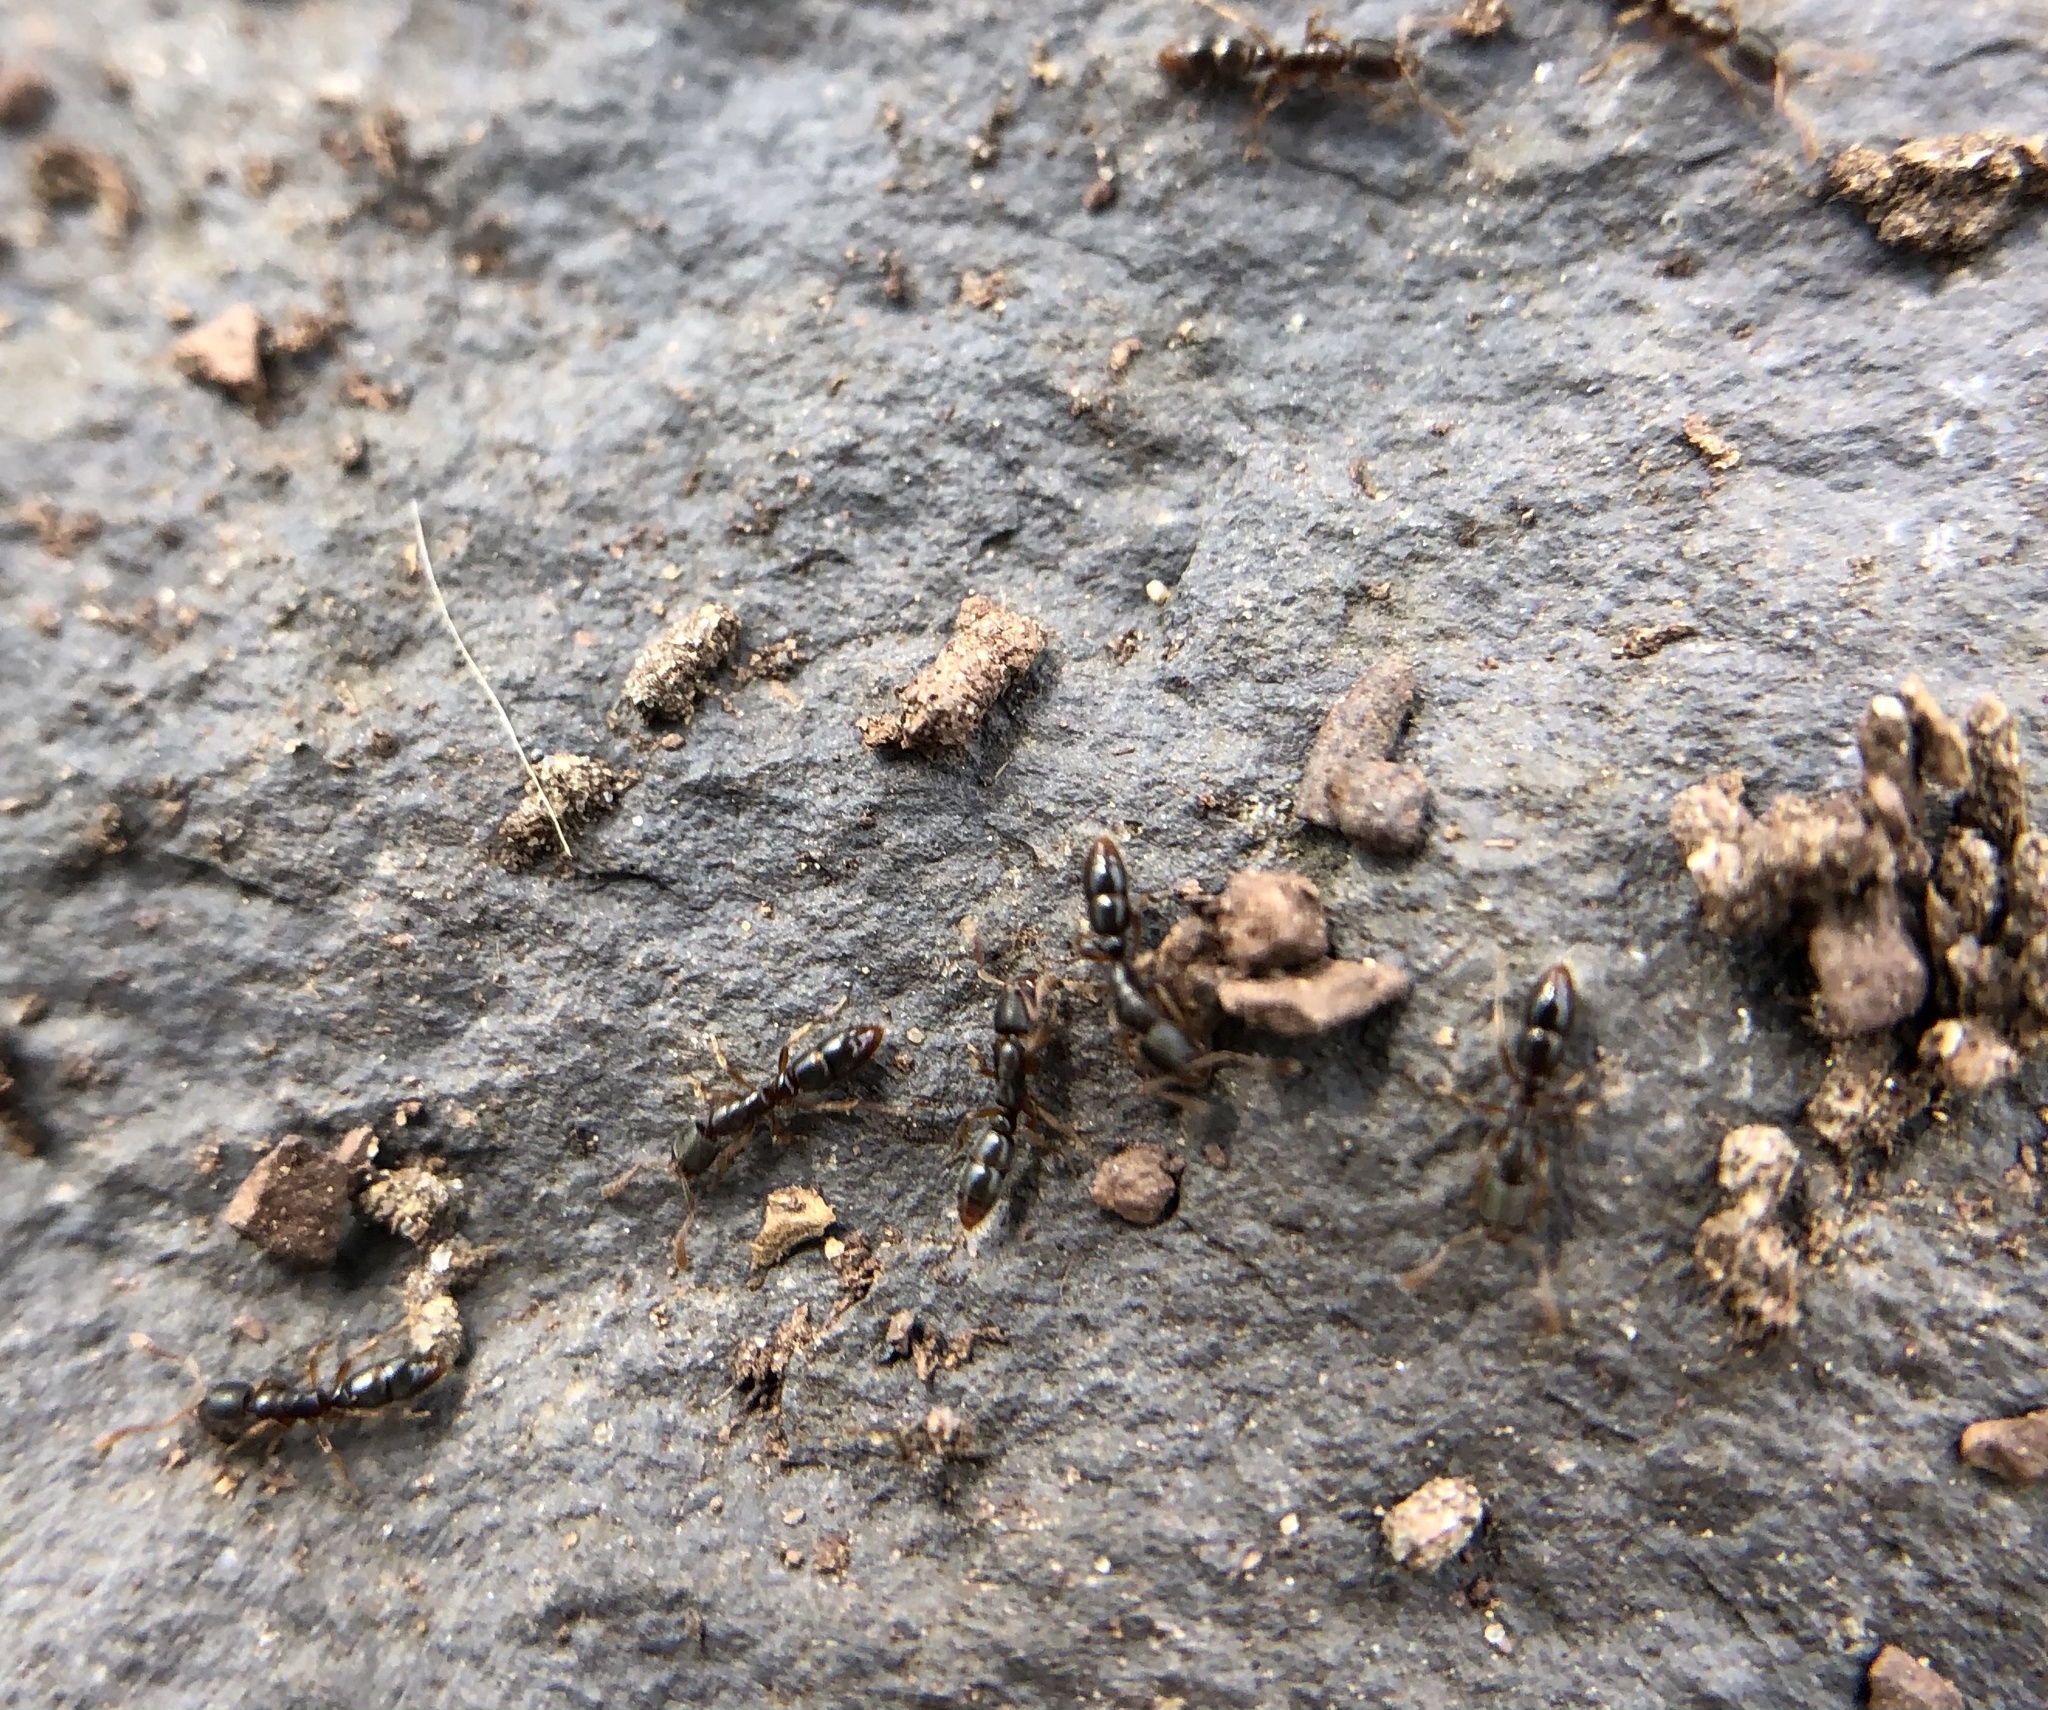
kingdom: Animalia
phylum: Arthropoda
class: Insecta
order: Hymenoptera
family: Formicidae
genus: Ponera
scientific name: Ponera pennsylvanica
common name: Pennsylvania ponera
